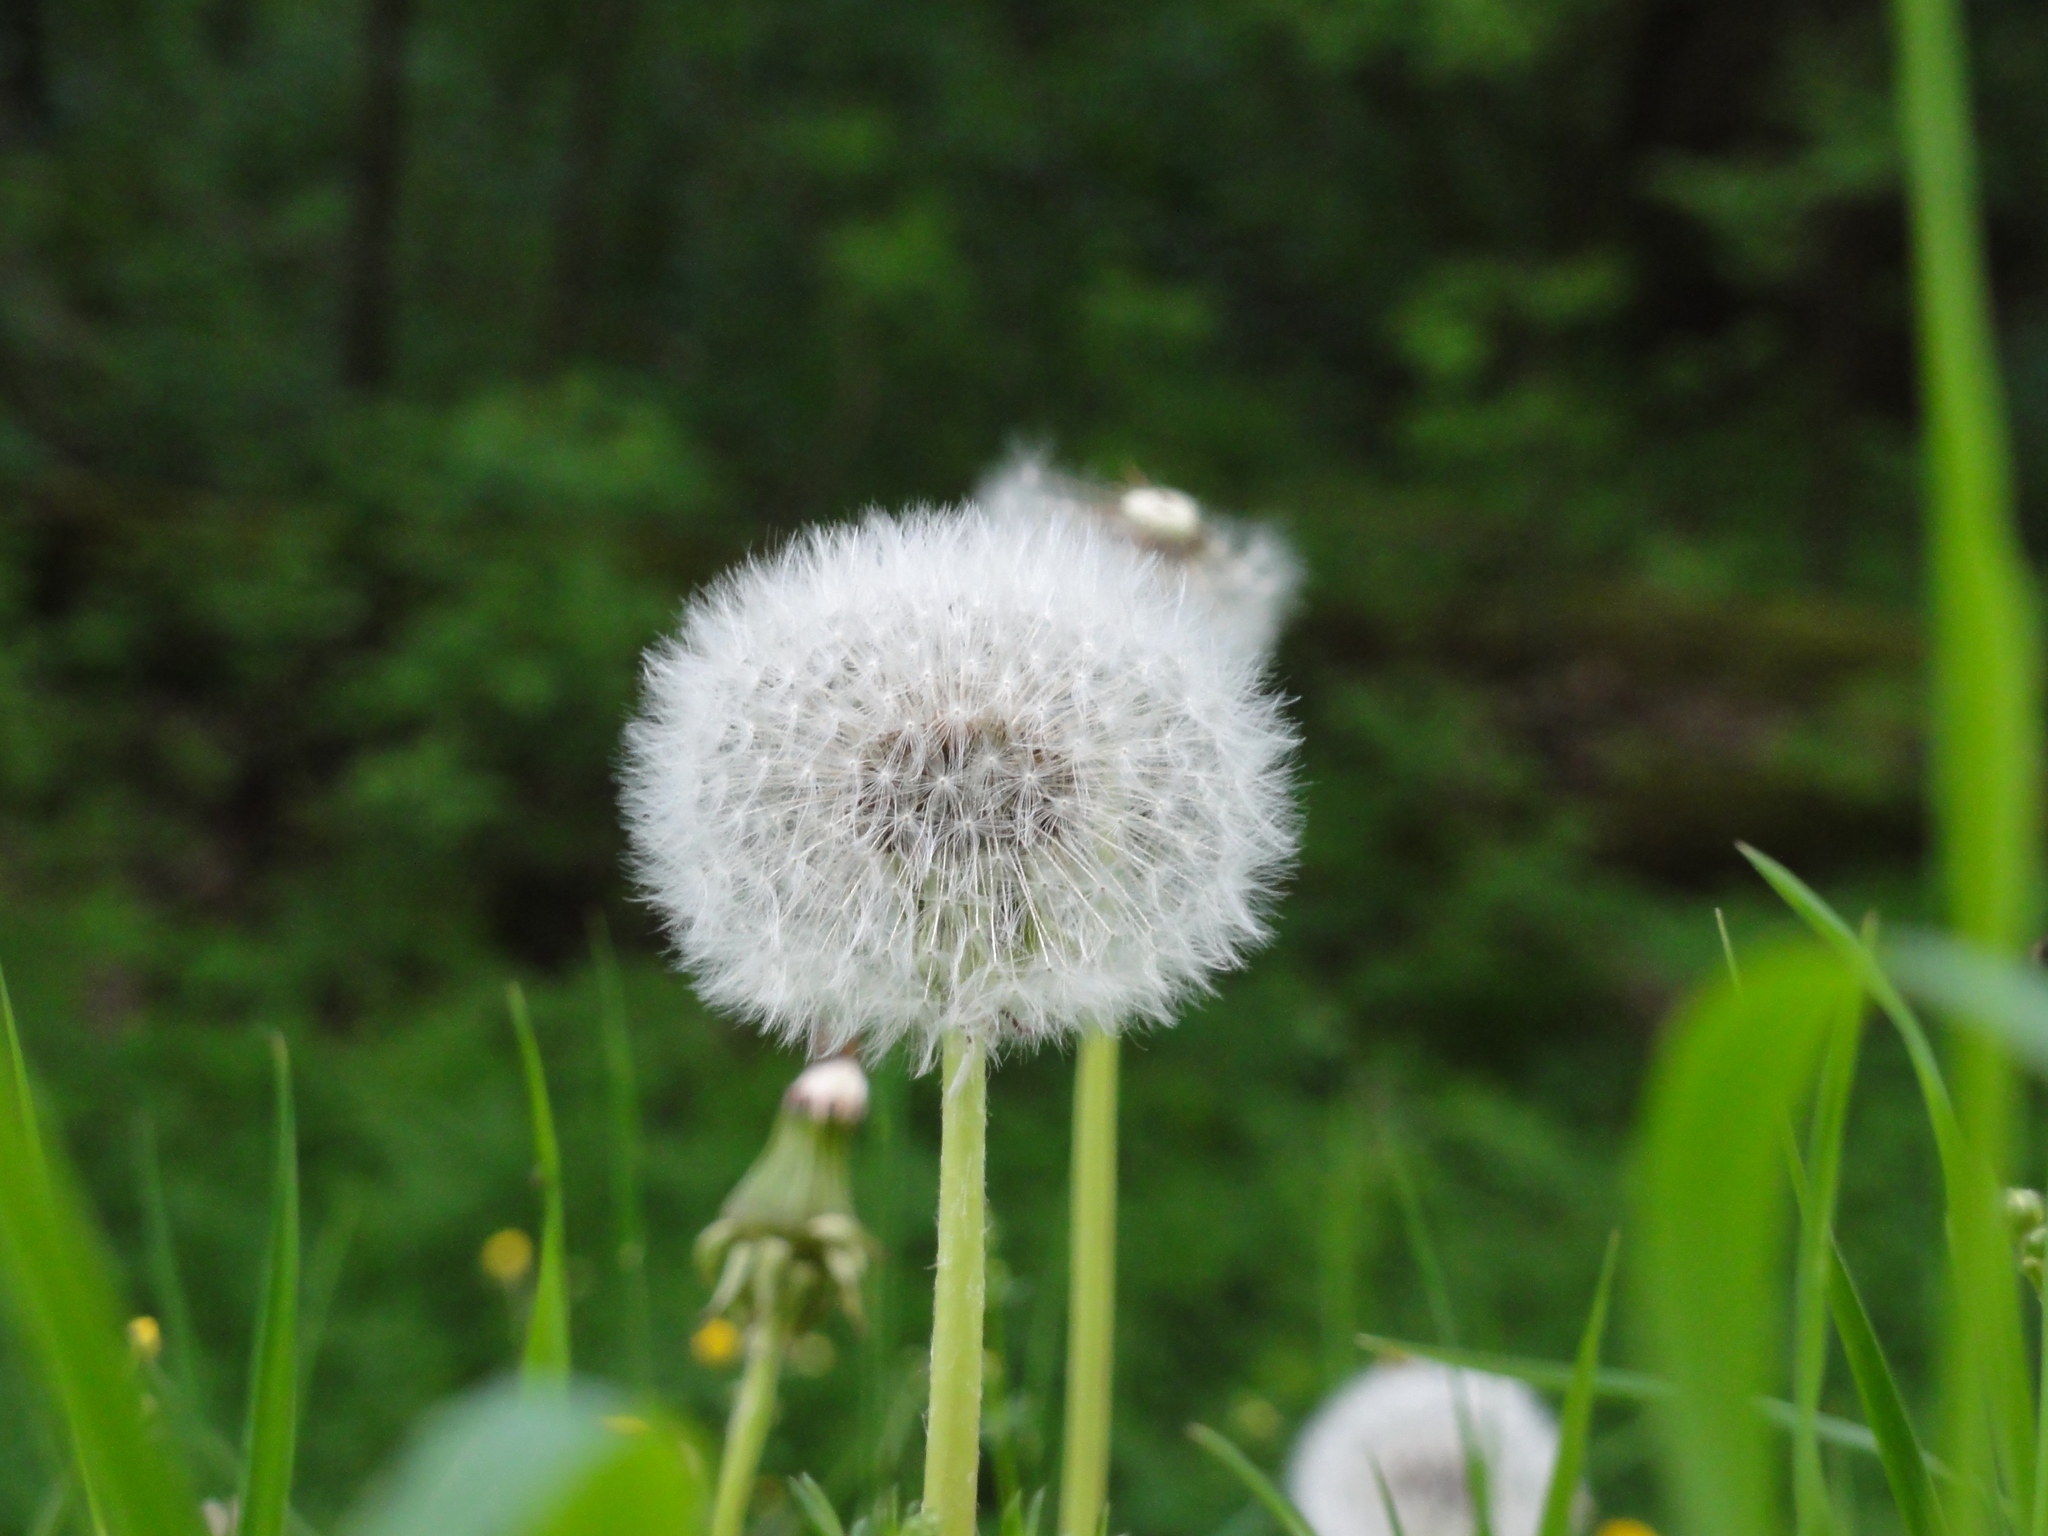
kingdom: Plantae
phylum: Tracheophyta
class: Magnoliopsida
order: Asterales
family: Asteraceae
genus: Taraxacum
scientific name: Taraxacum officinale
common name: Common dandelion
